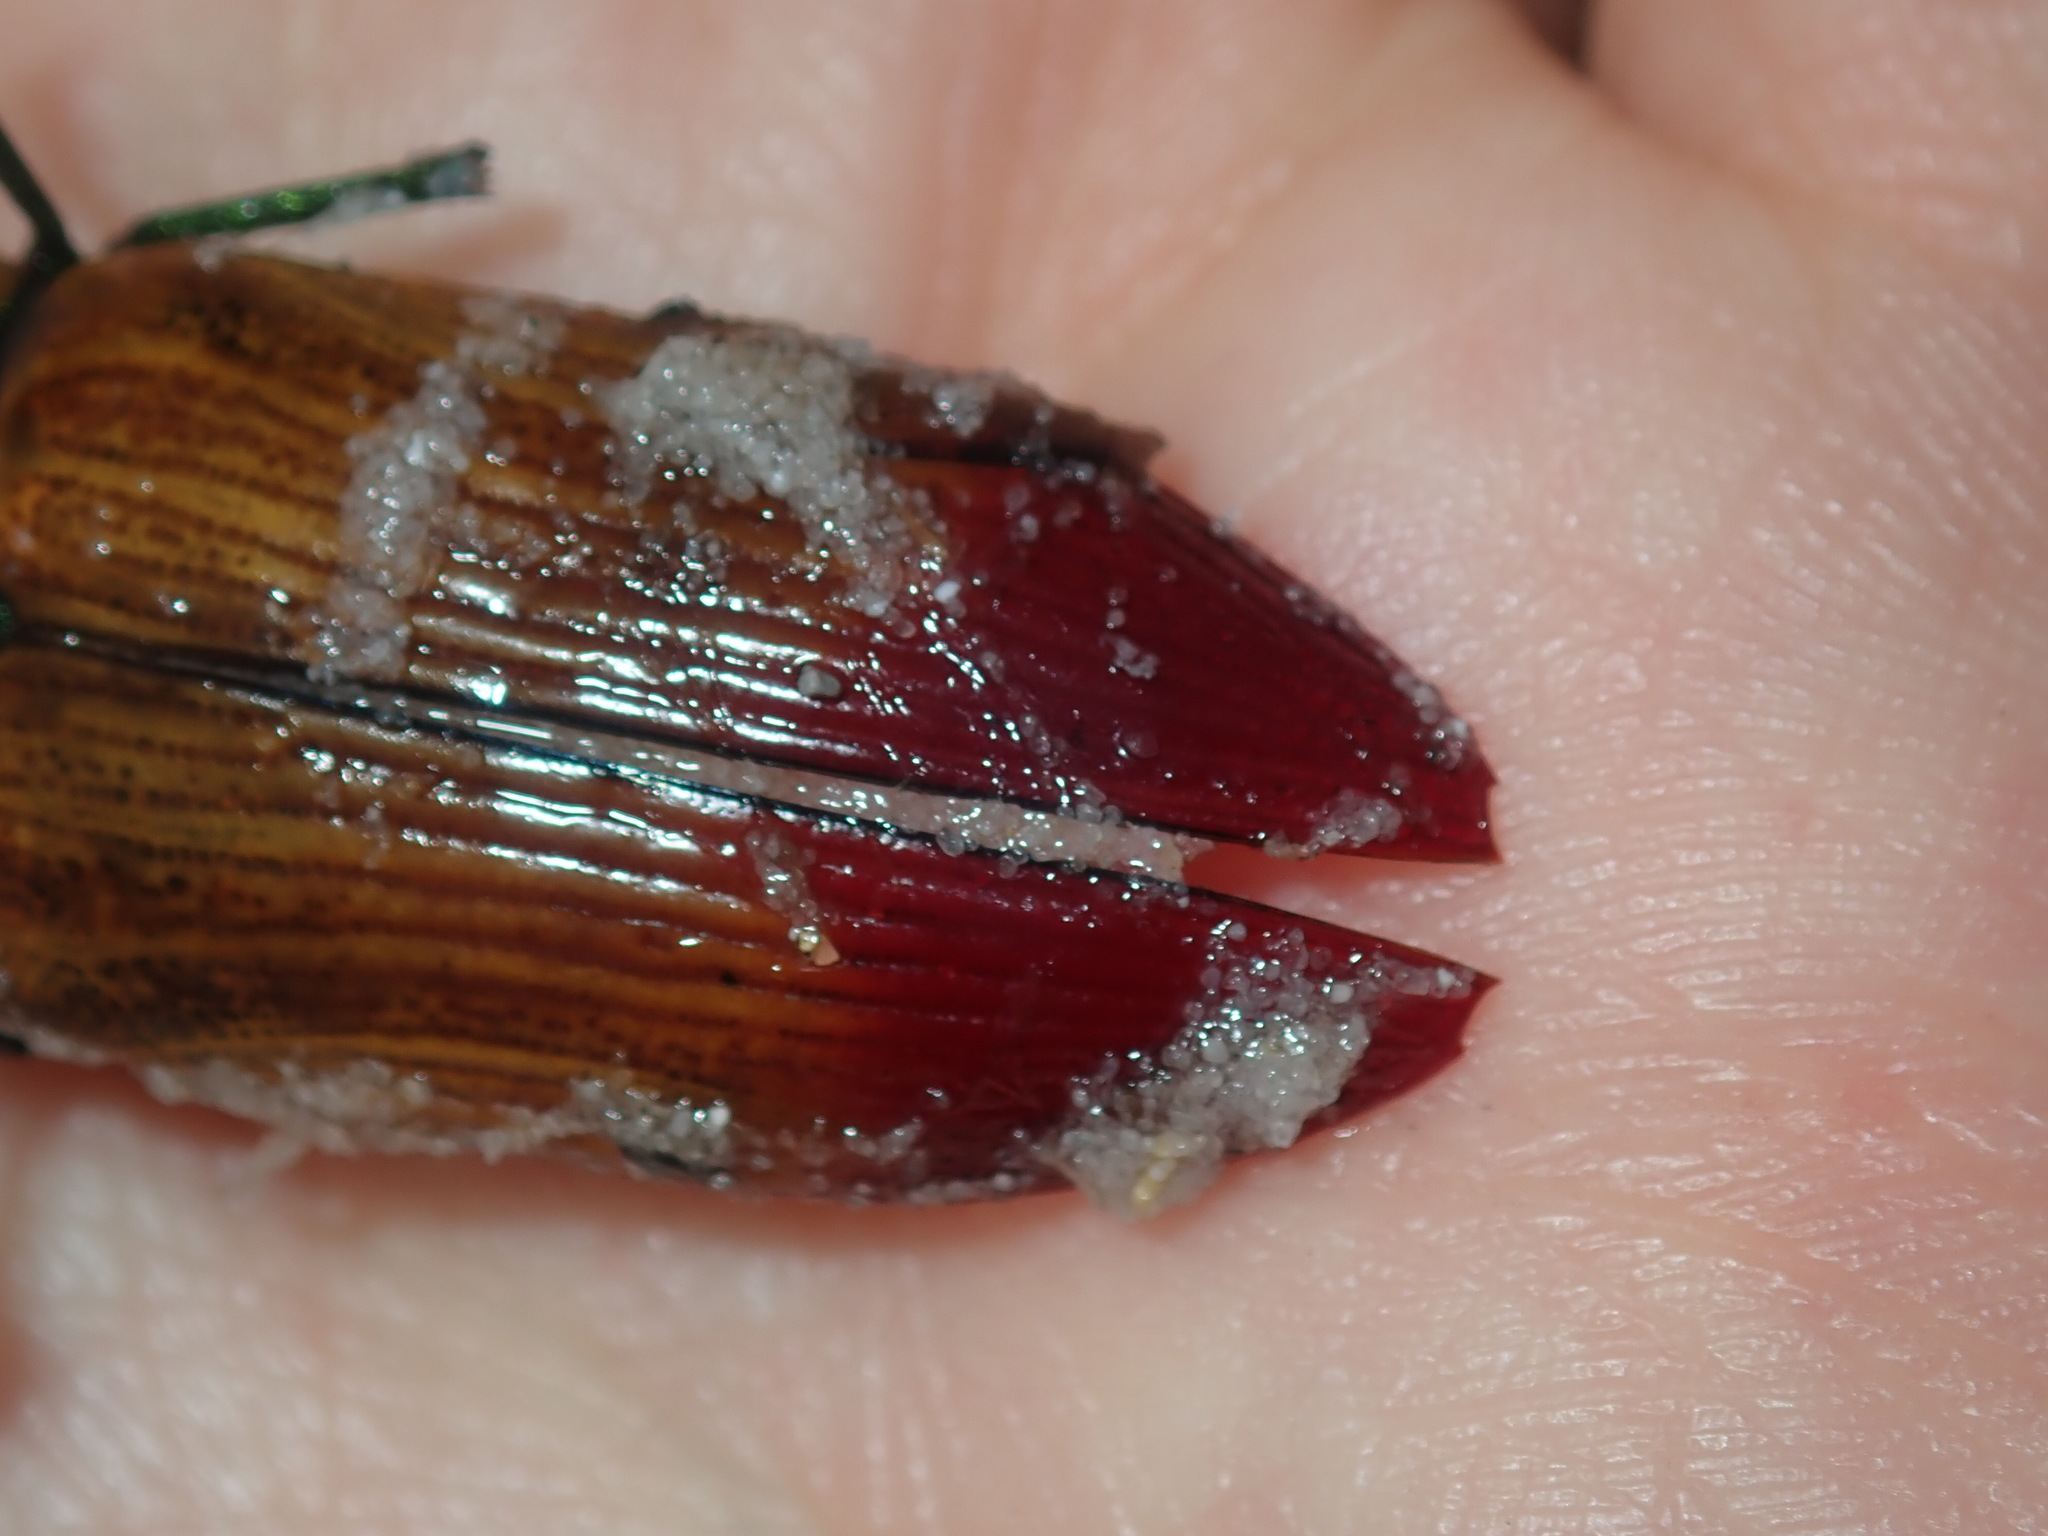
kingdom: Animalia
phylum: Arthropoda
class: Insecta
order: Coleoptera
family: Buprestidae
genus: Temognatha
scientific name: Temognatha variabilis
